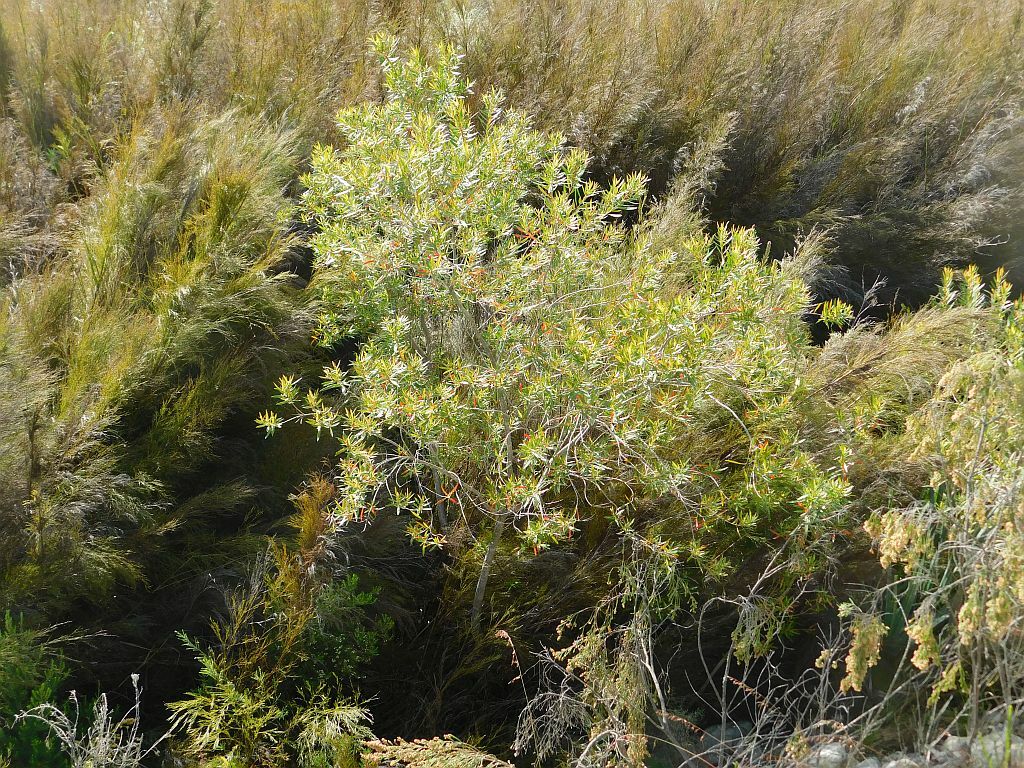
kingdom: Plantae
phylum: Tracheophyta
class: Magnoliopsida
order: Myrtales
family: Myrtaceae
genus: Callistemon
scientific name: Callistemon lanceolatus
